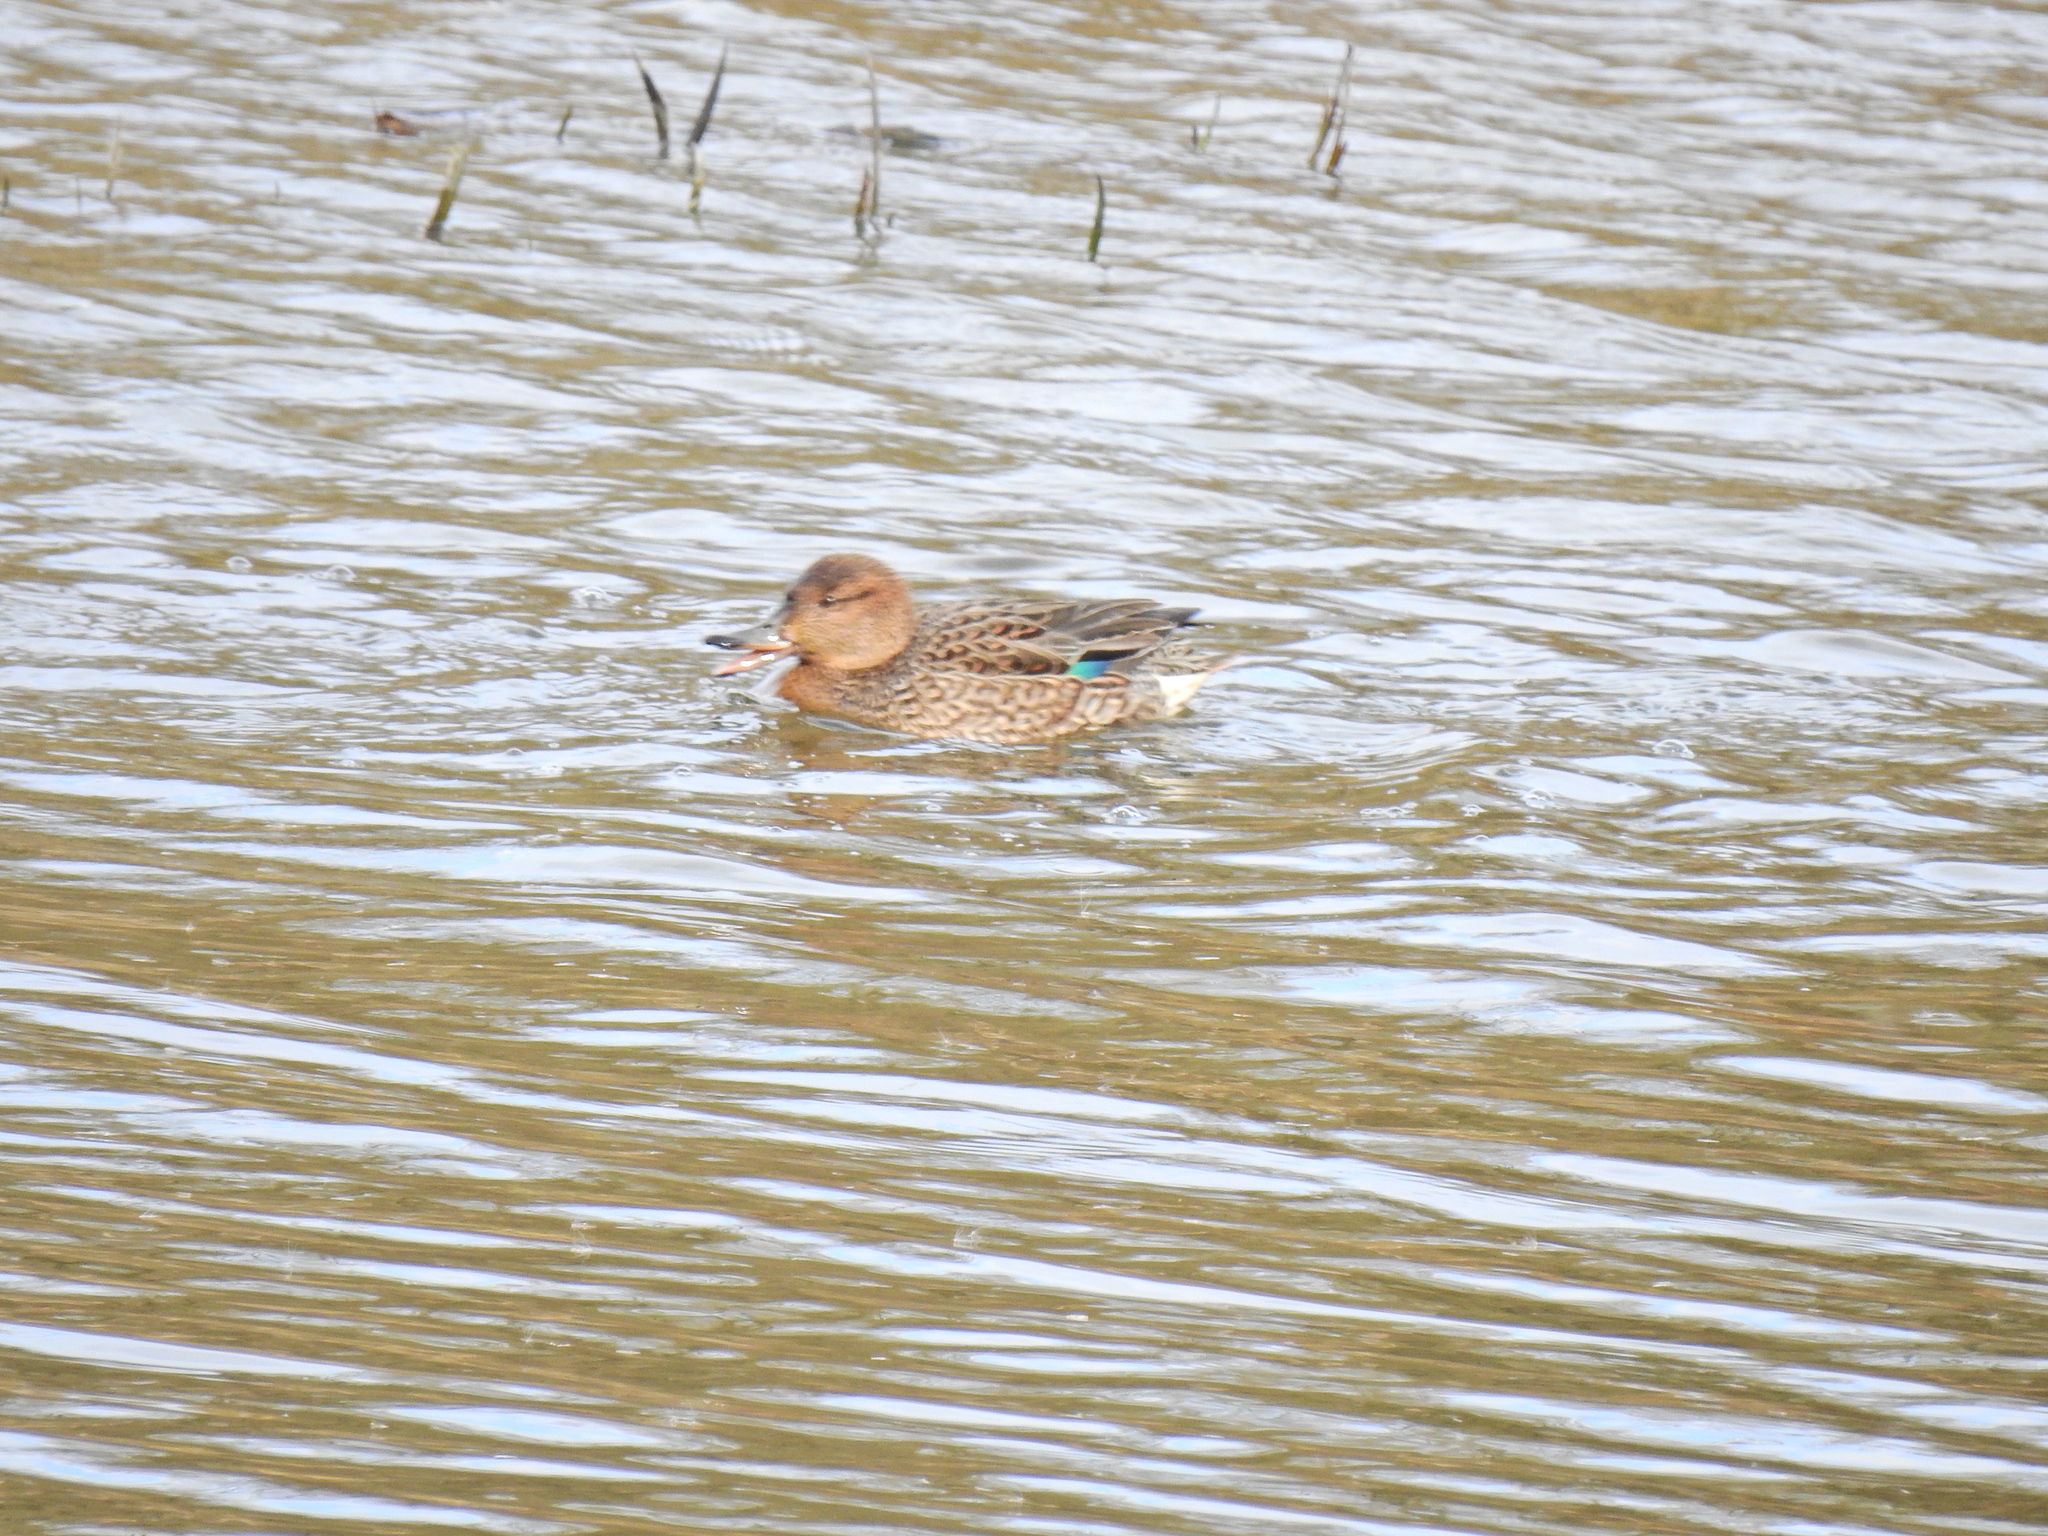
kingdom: Animalia
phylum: Chordata
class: Aves
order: Anseriformes
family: Anatidae
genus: Anas
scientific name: Anas crecca
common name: Eurasian teal
